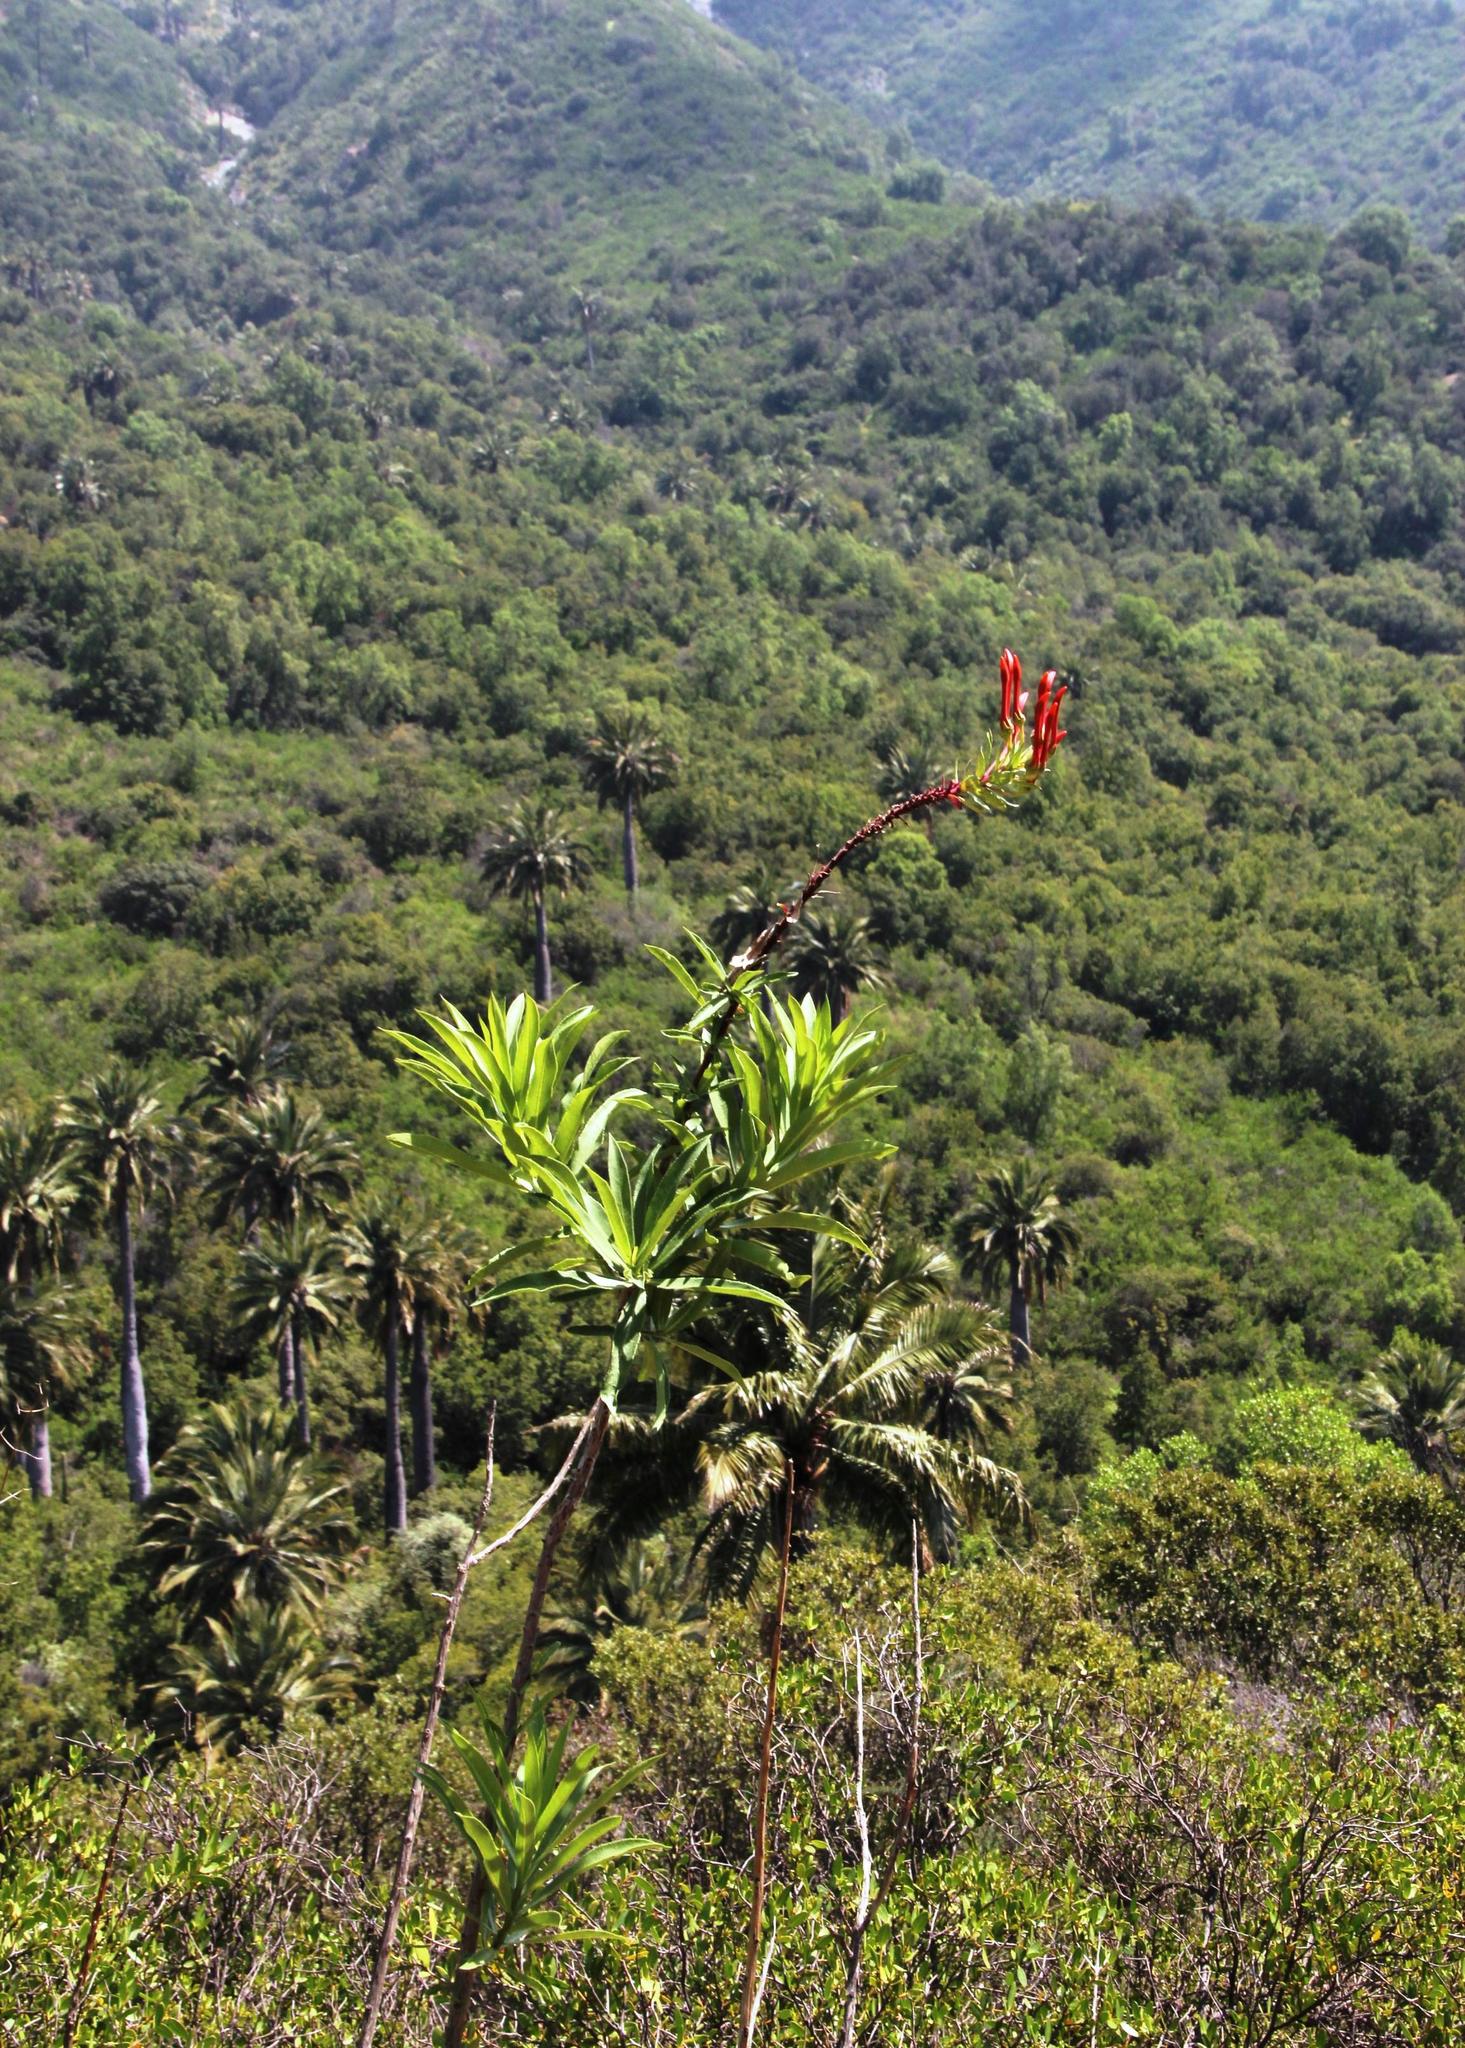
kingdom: Plantae
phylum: Tracheophyta
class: Magnoliopsida
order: Asterales
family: Campanulaceae
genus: Lobelia
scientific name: Lobelia excelsa
